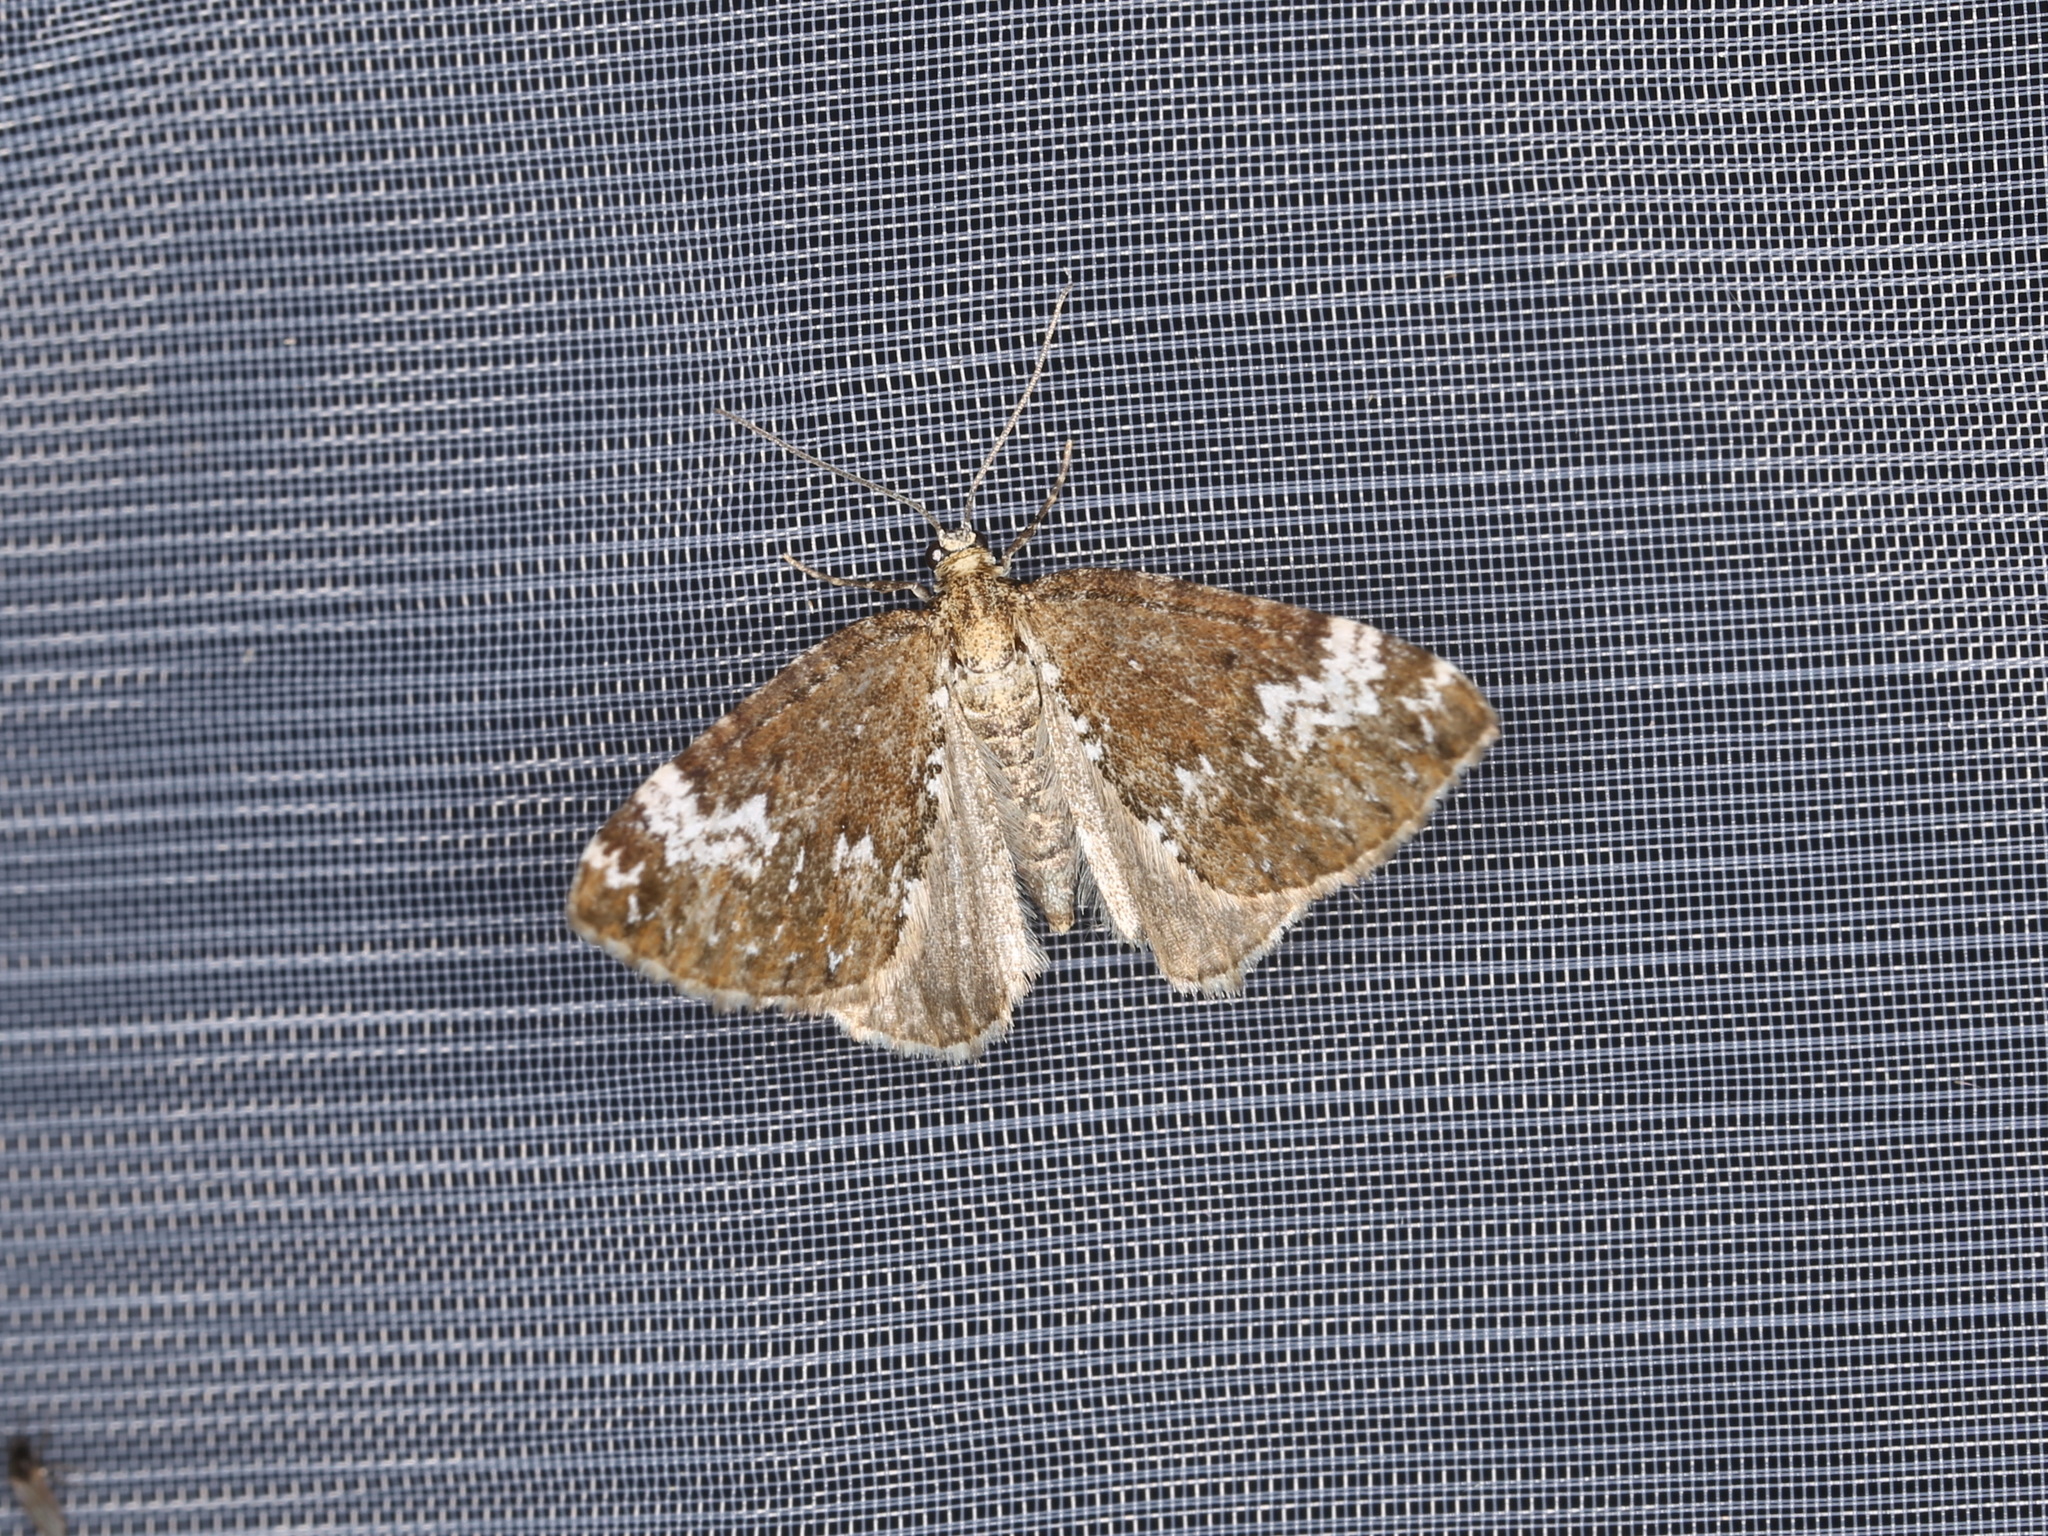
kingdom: Animalia
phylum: Arthropoda
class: Insecta
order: Lepidoptera
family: Geometridae
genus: Perizoma
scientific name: Perizoma alchemillata
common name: Small rivulet
